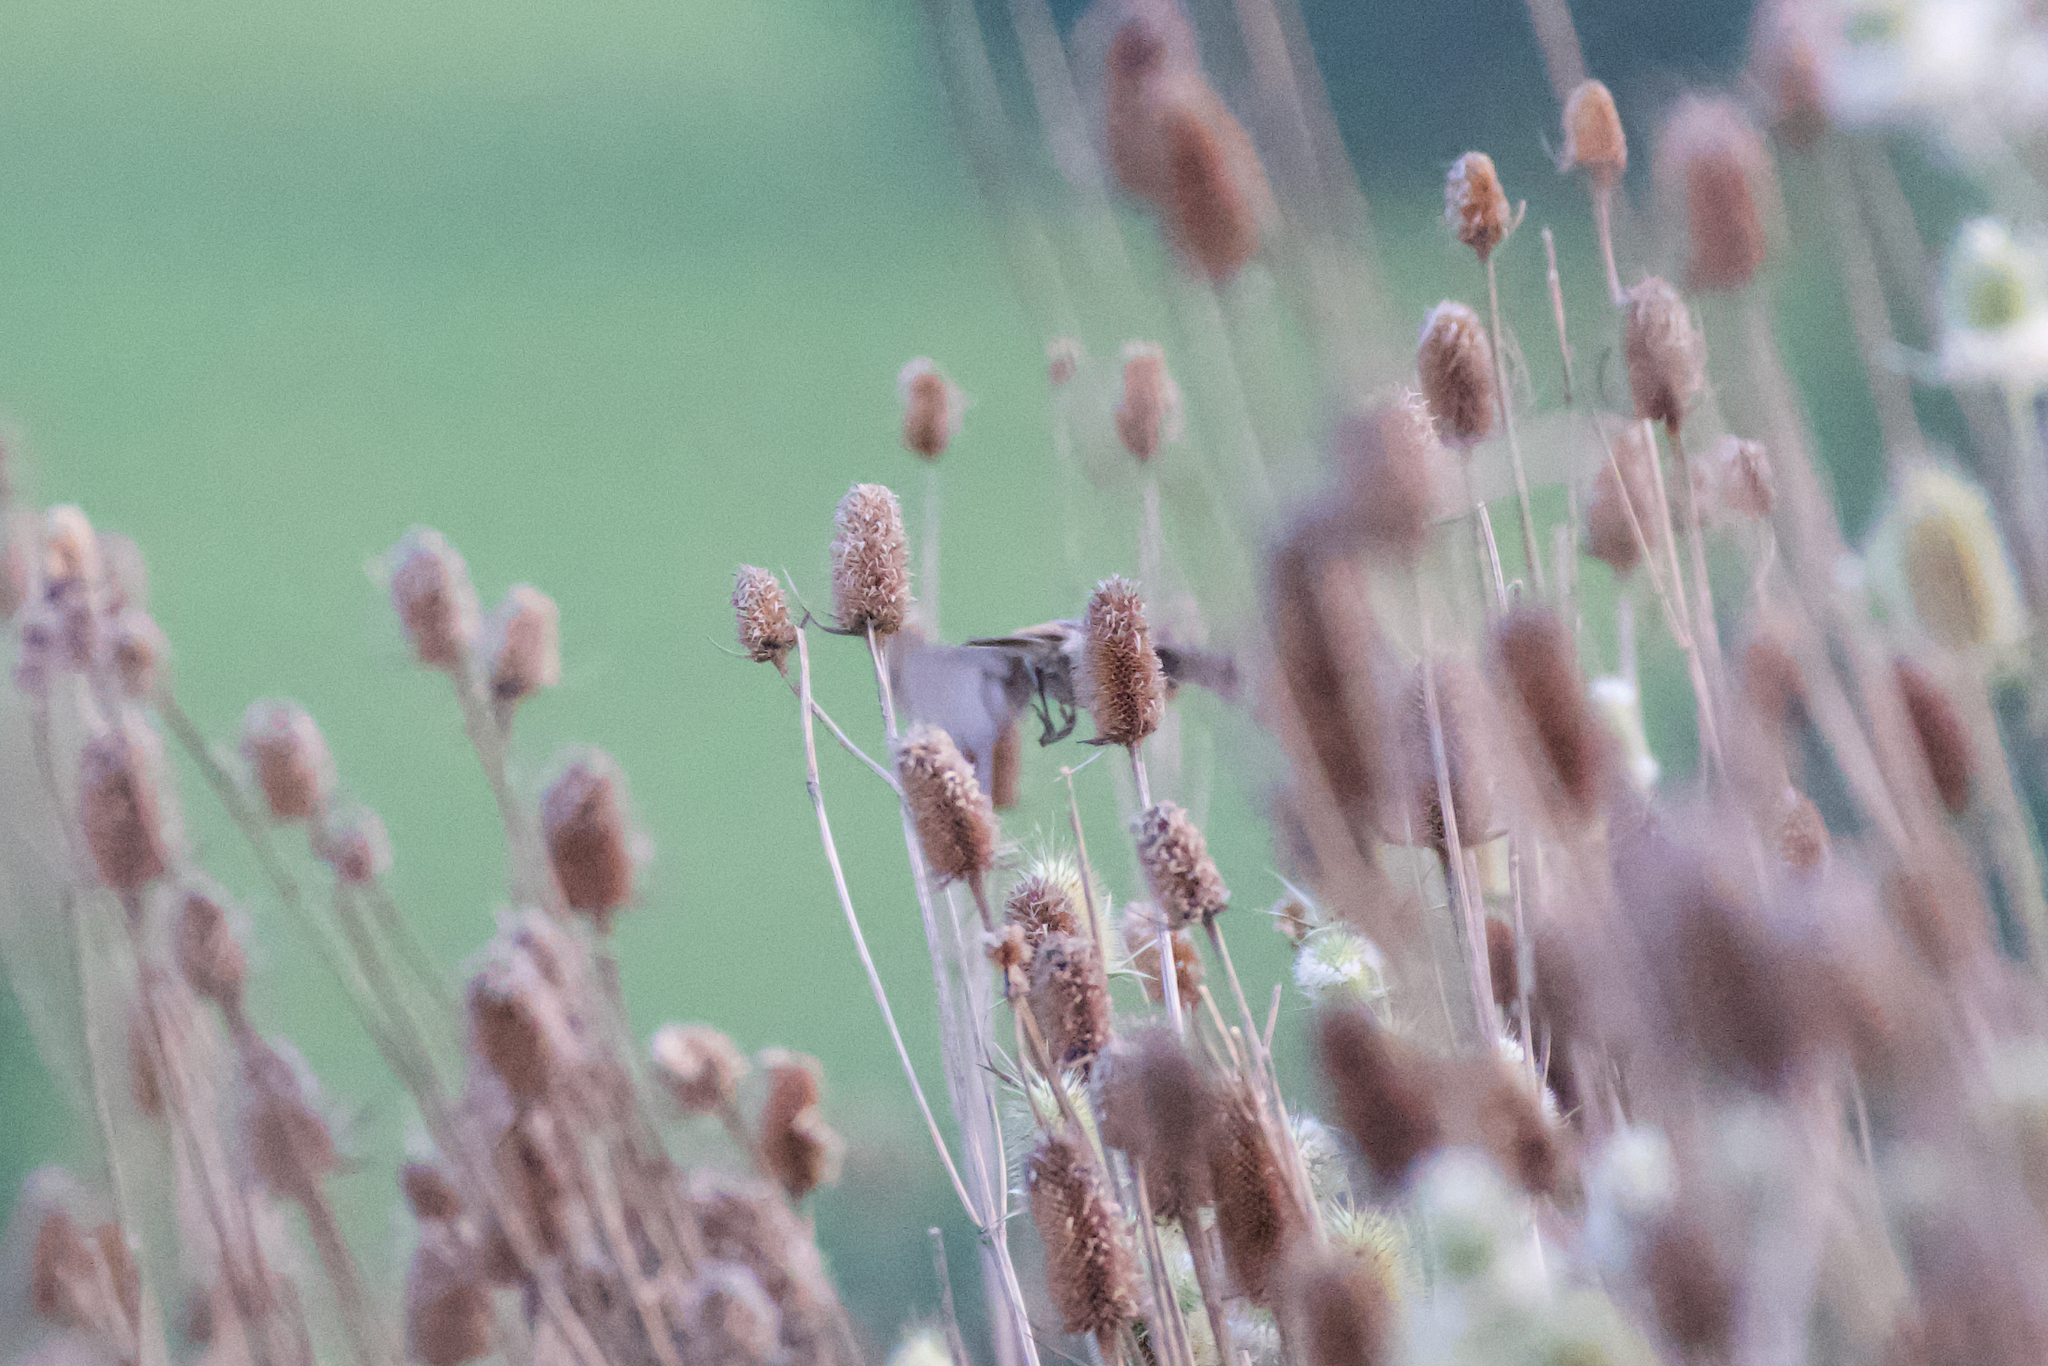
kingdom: Animalia
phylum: Chordata
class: Aves
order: Passeriformes
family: Muscicapidae
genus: Saxicola
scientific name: Saxicola rubicola
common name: European stonechat
